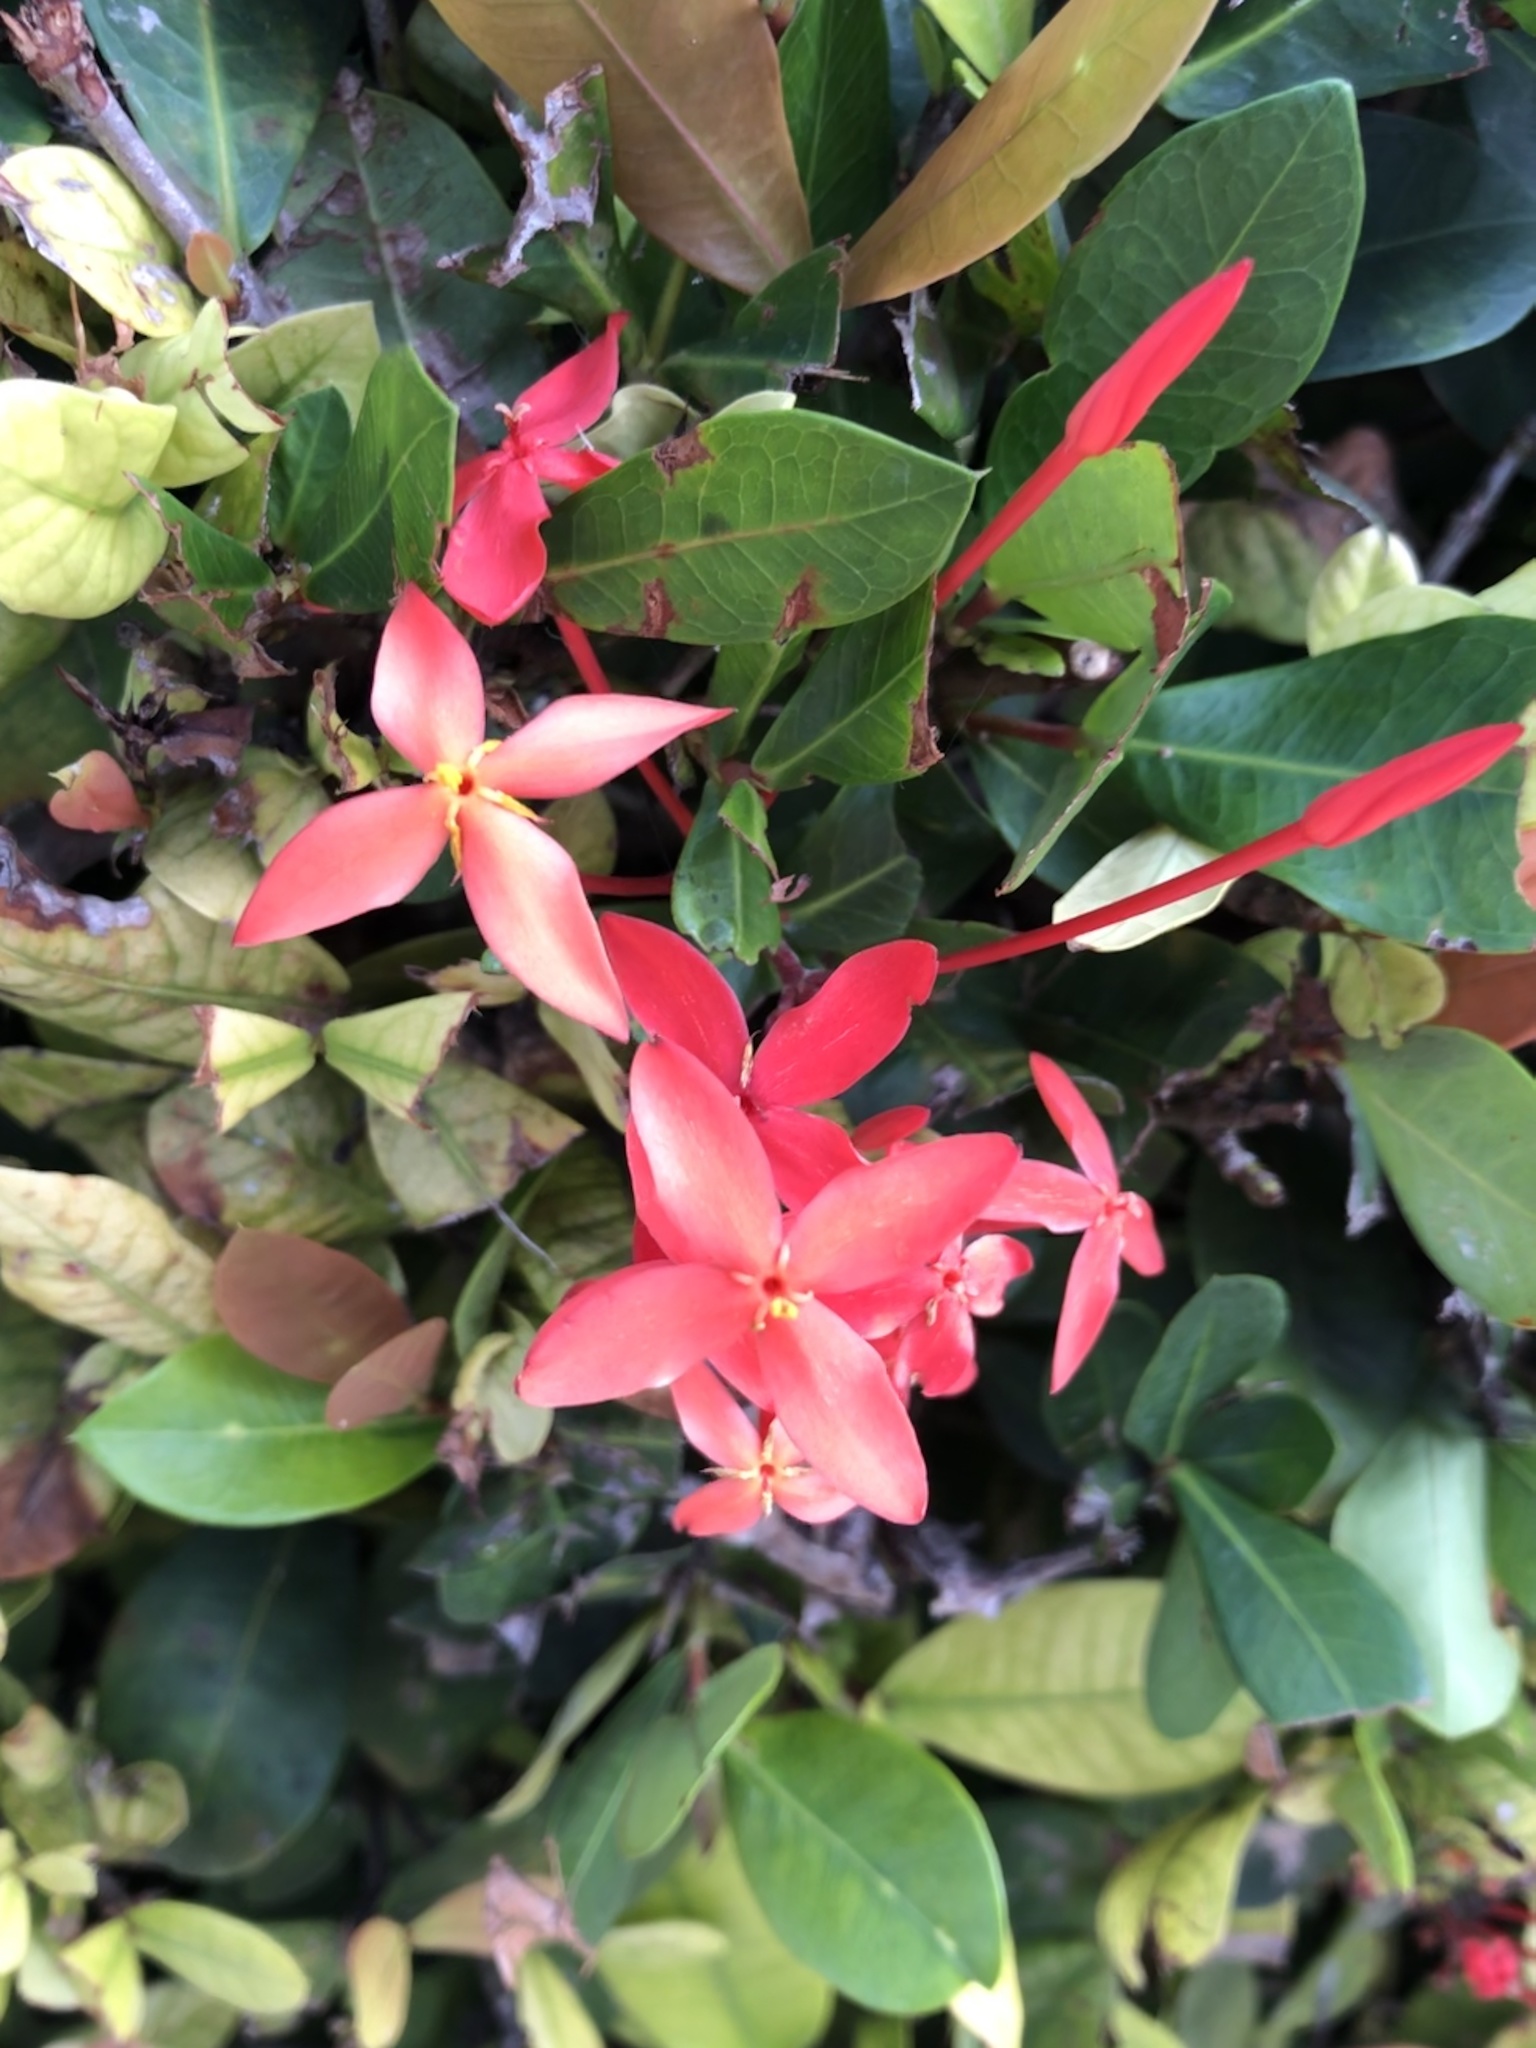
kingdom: Plantae
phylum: Tracheophyta
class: Magnoliopsida
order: Gentianales
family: Rubiaceae
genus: Ixora
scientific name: Ixora coccinea
